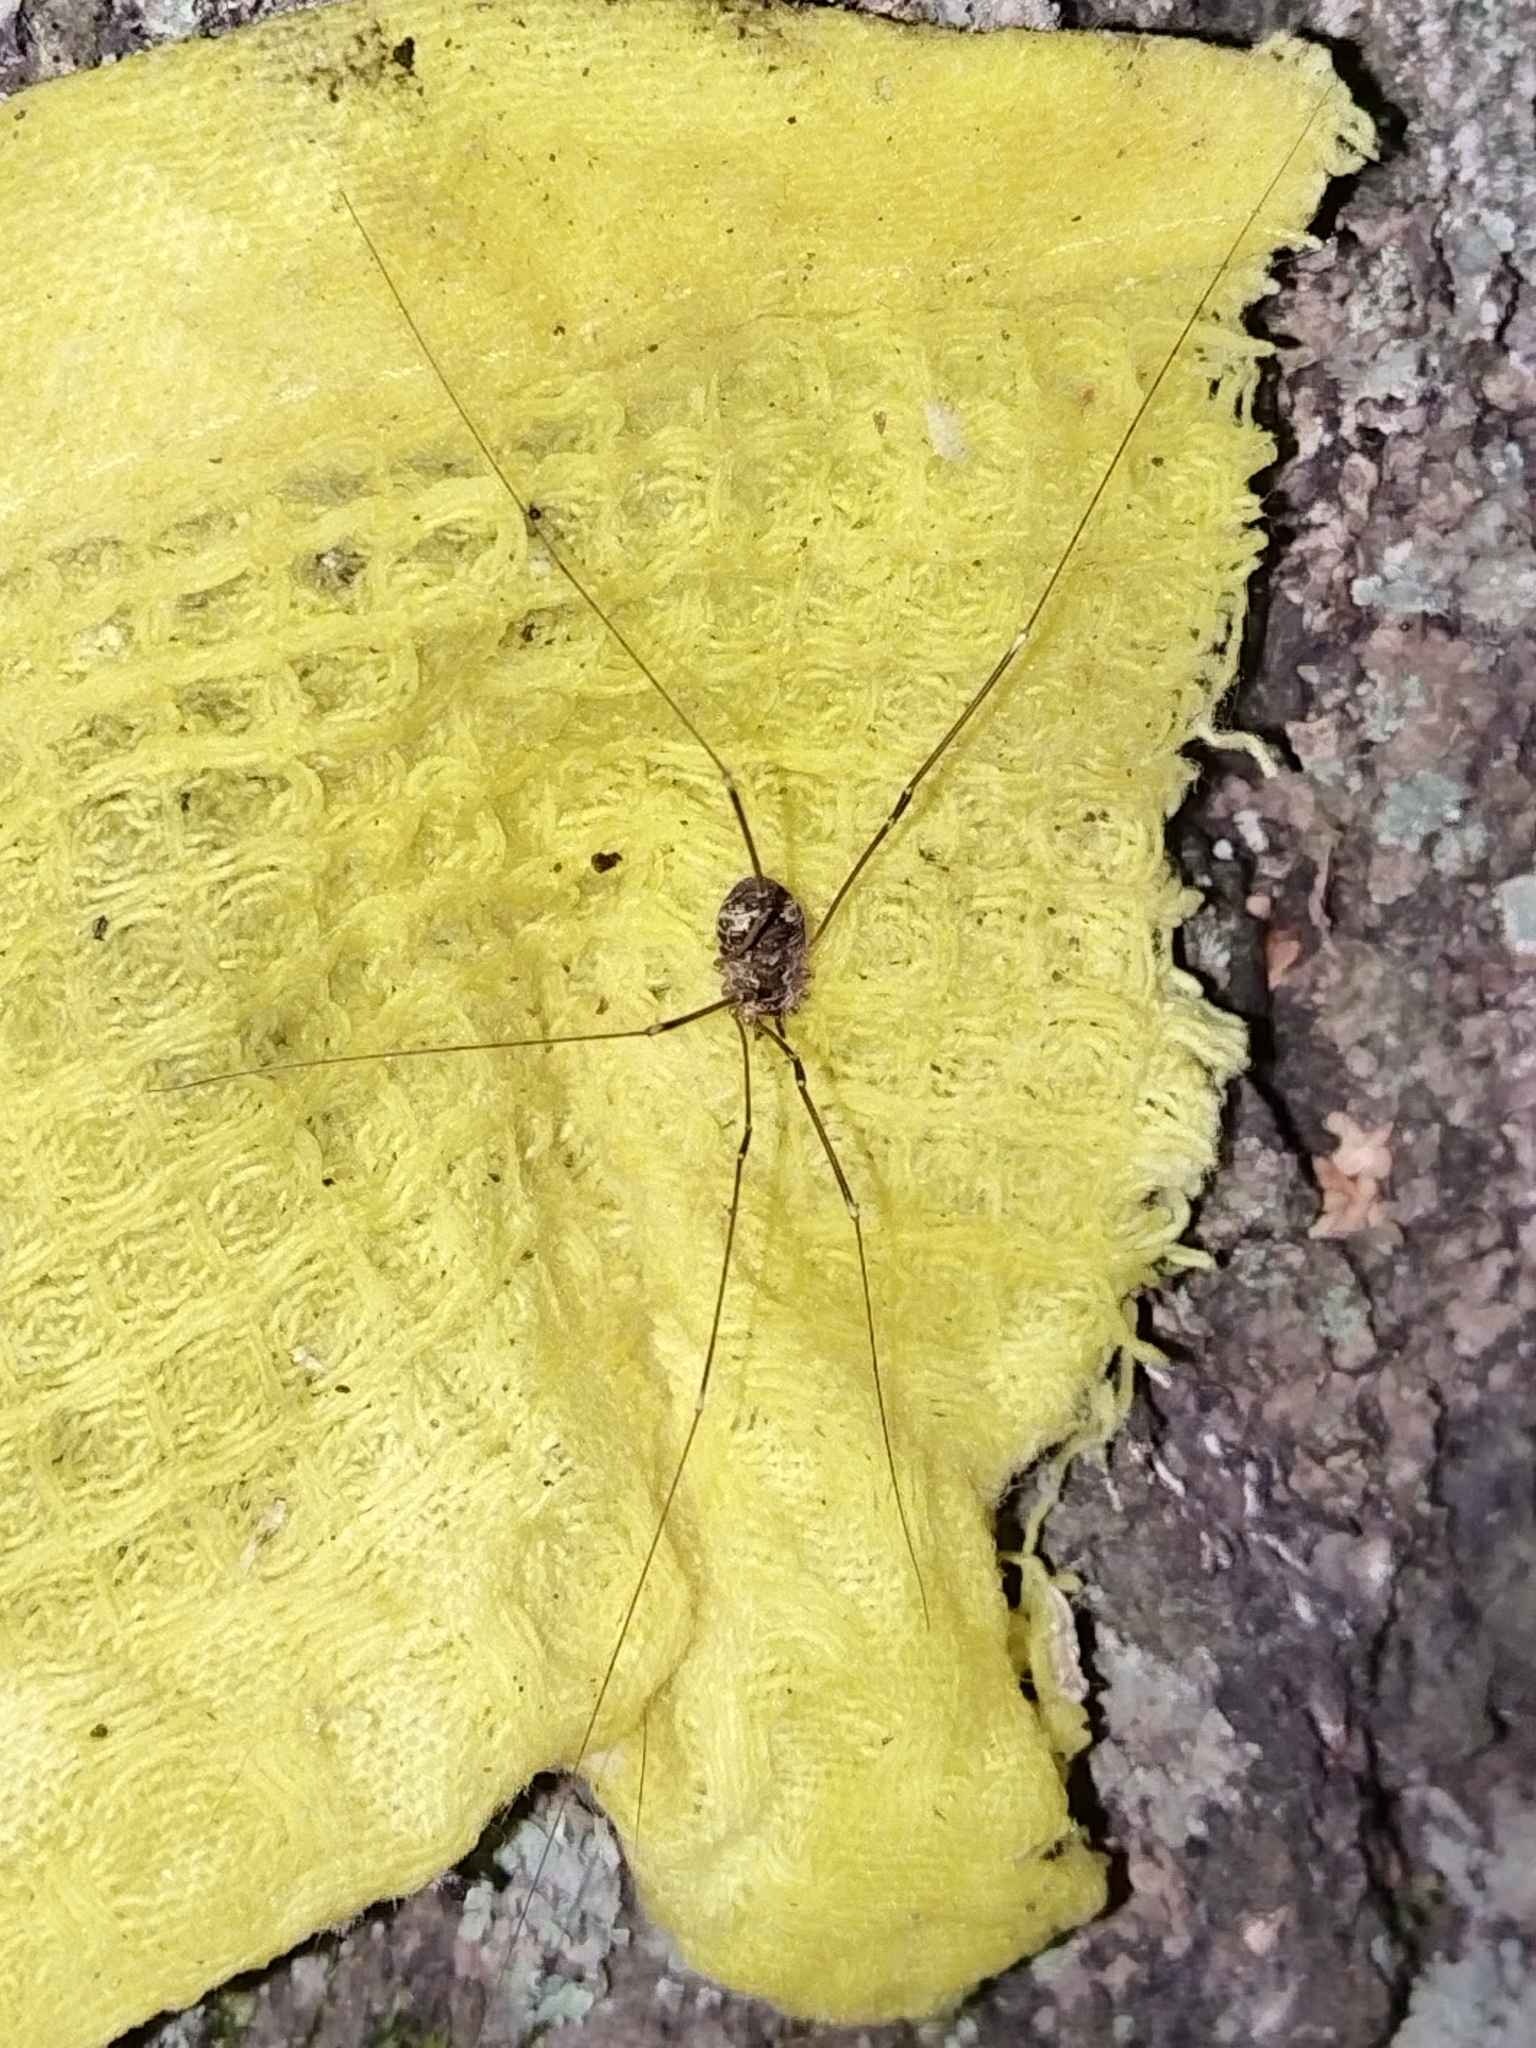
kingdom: Animalia
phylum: Arthropoda
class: Arachnida
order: Opiliones
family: Sclerosomatidae
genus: Leiobunum
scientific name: Leiobunum gracile
